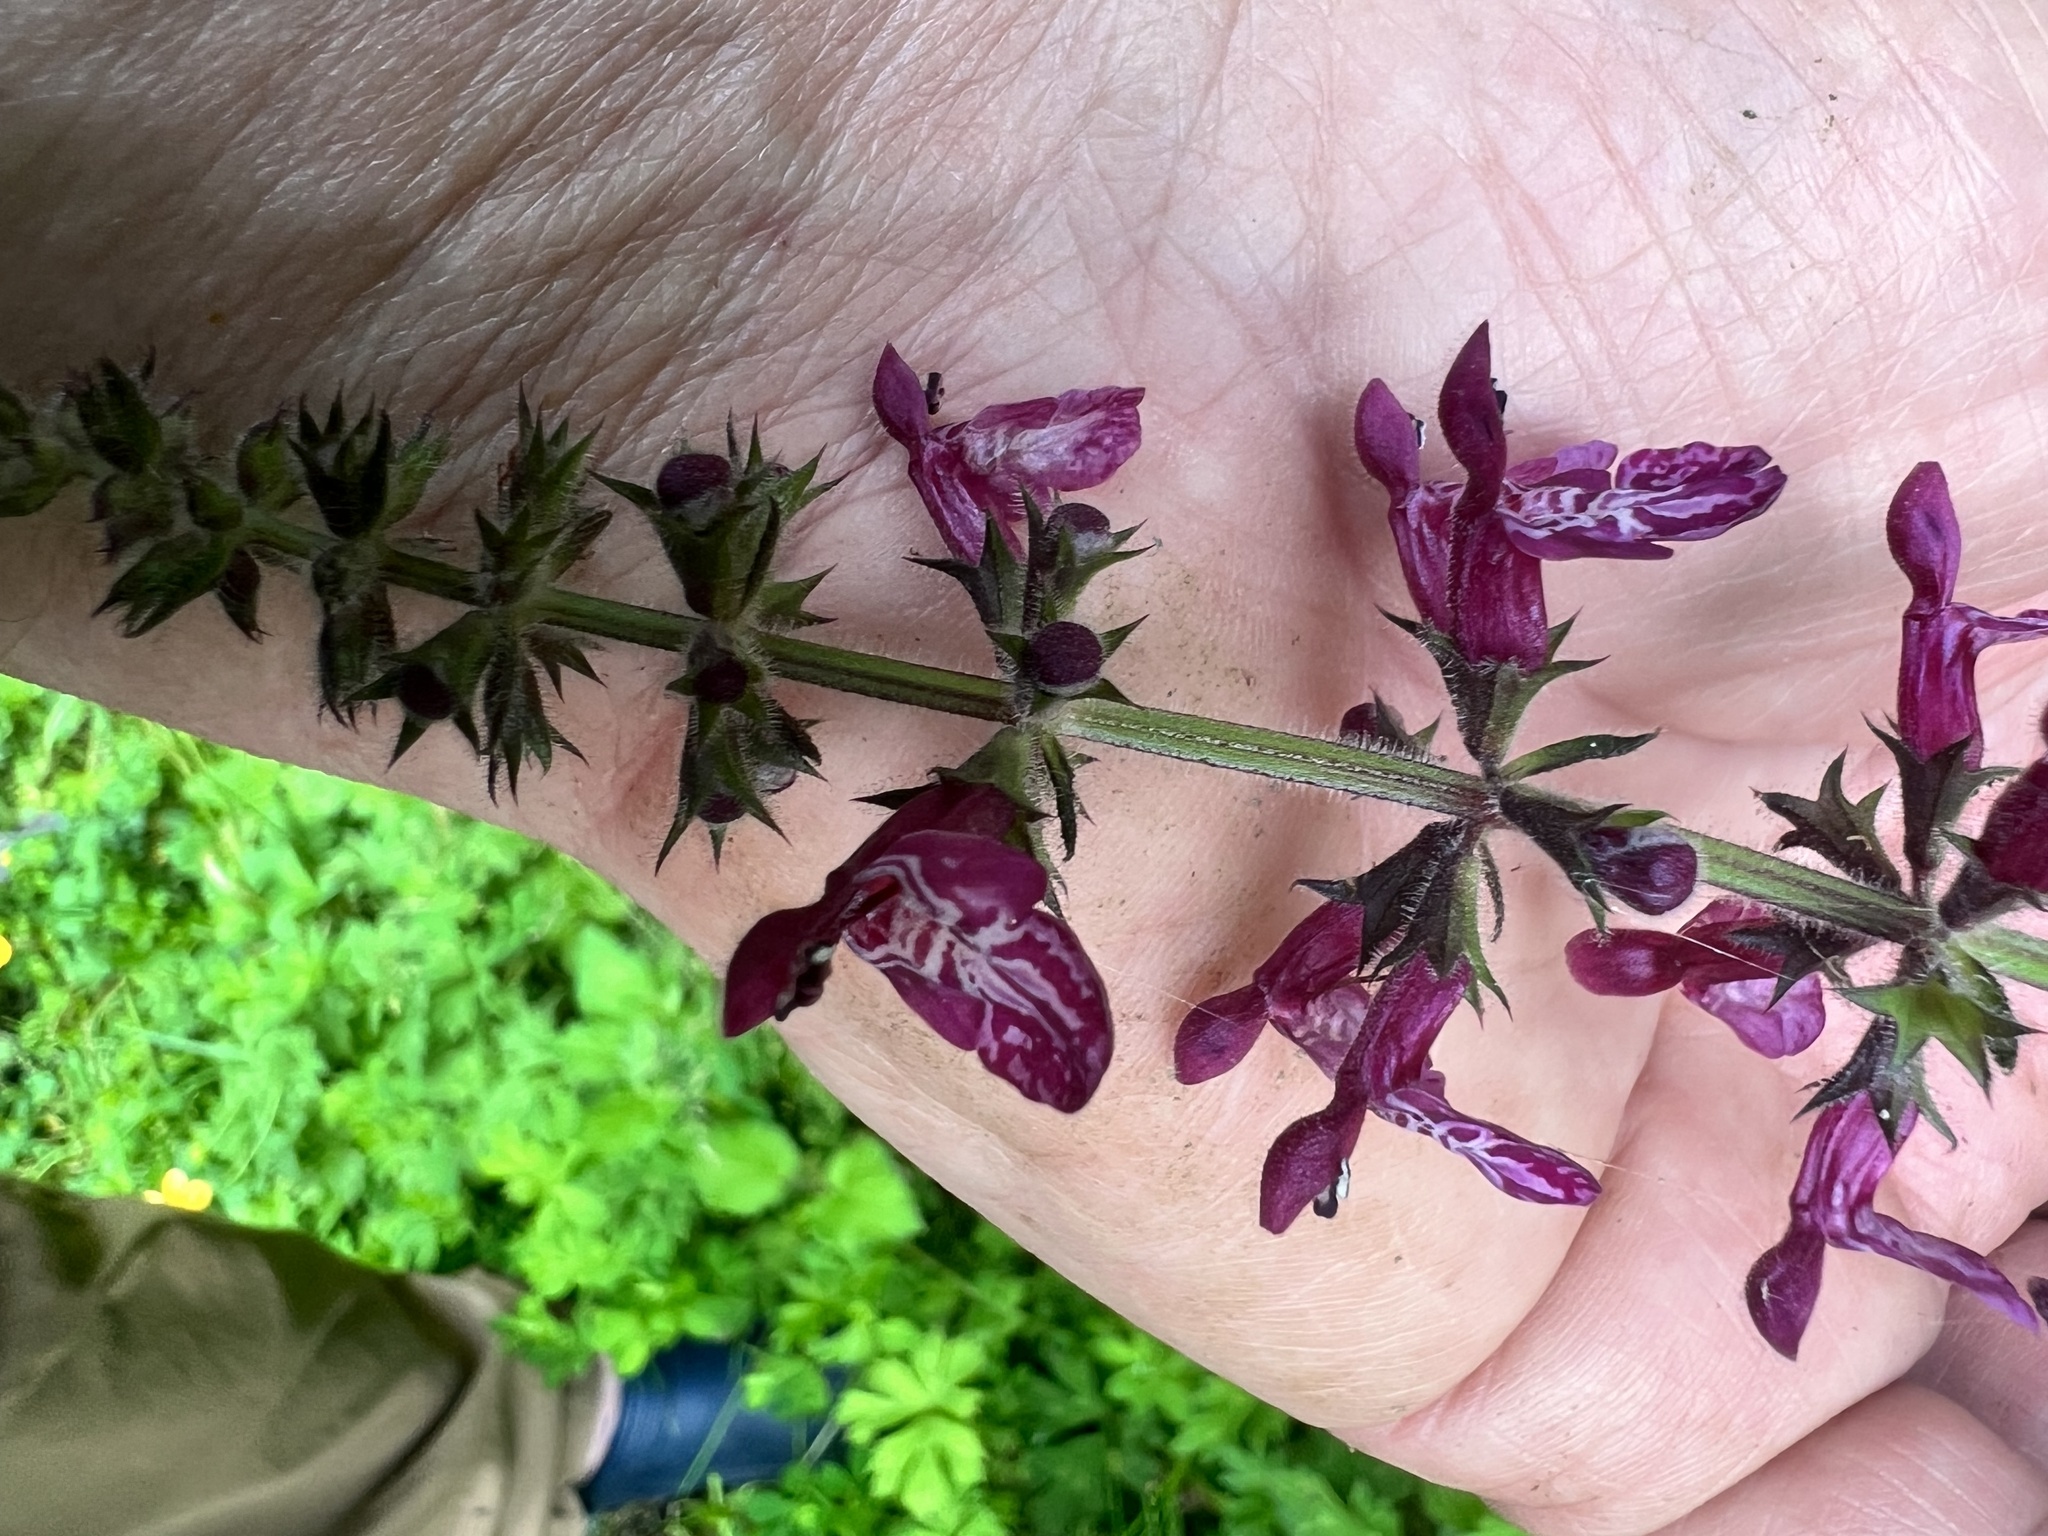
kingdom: Plantae
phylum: Tracheophyta
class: Magnoliopsida
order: Lamiales
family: Lamiaceae
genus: Stachys
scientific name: Stachys sylvatica
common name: Hedge woundwort
